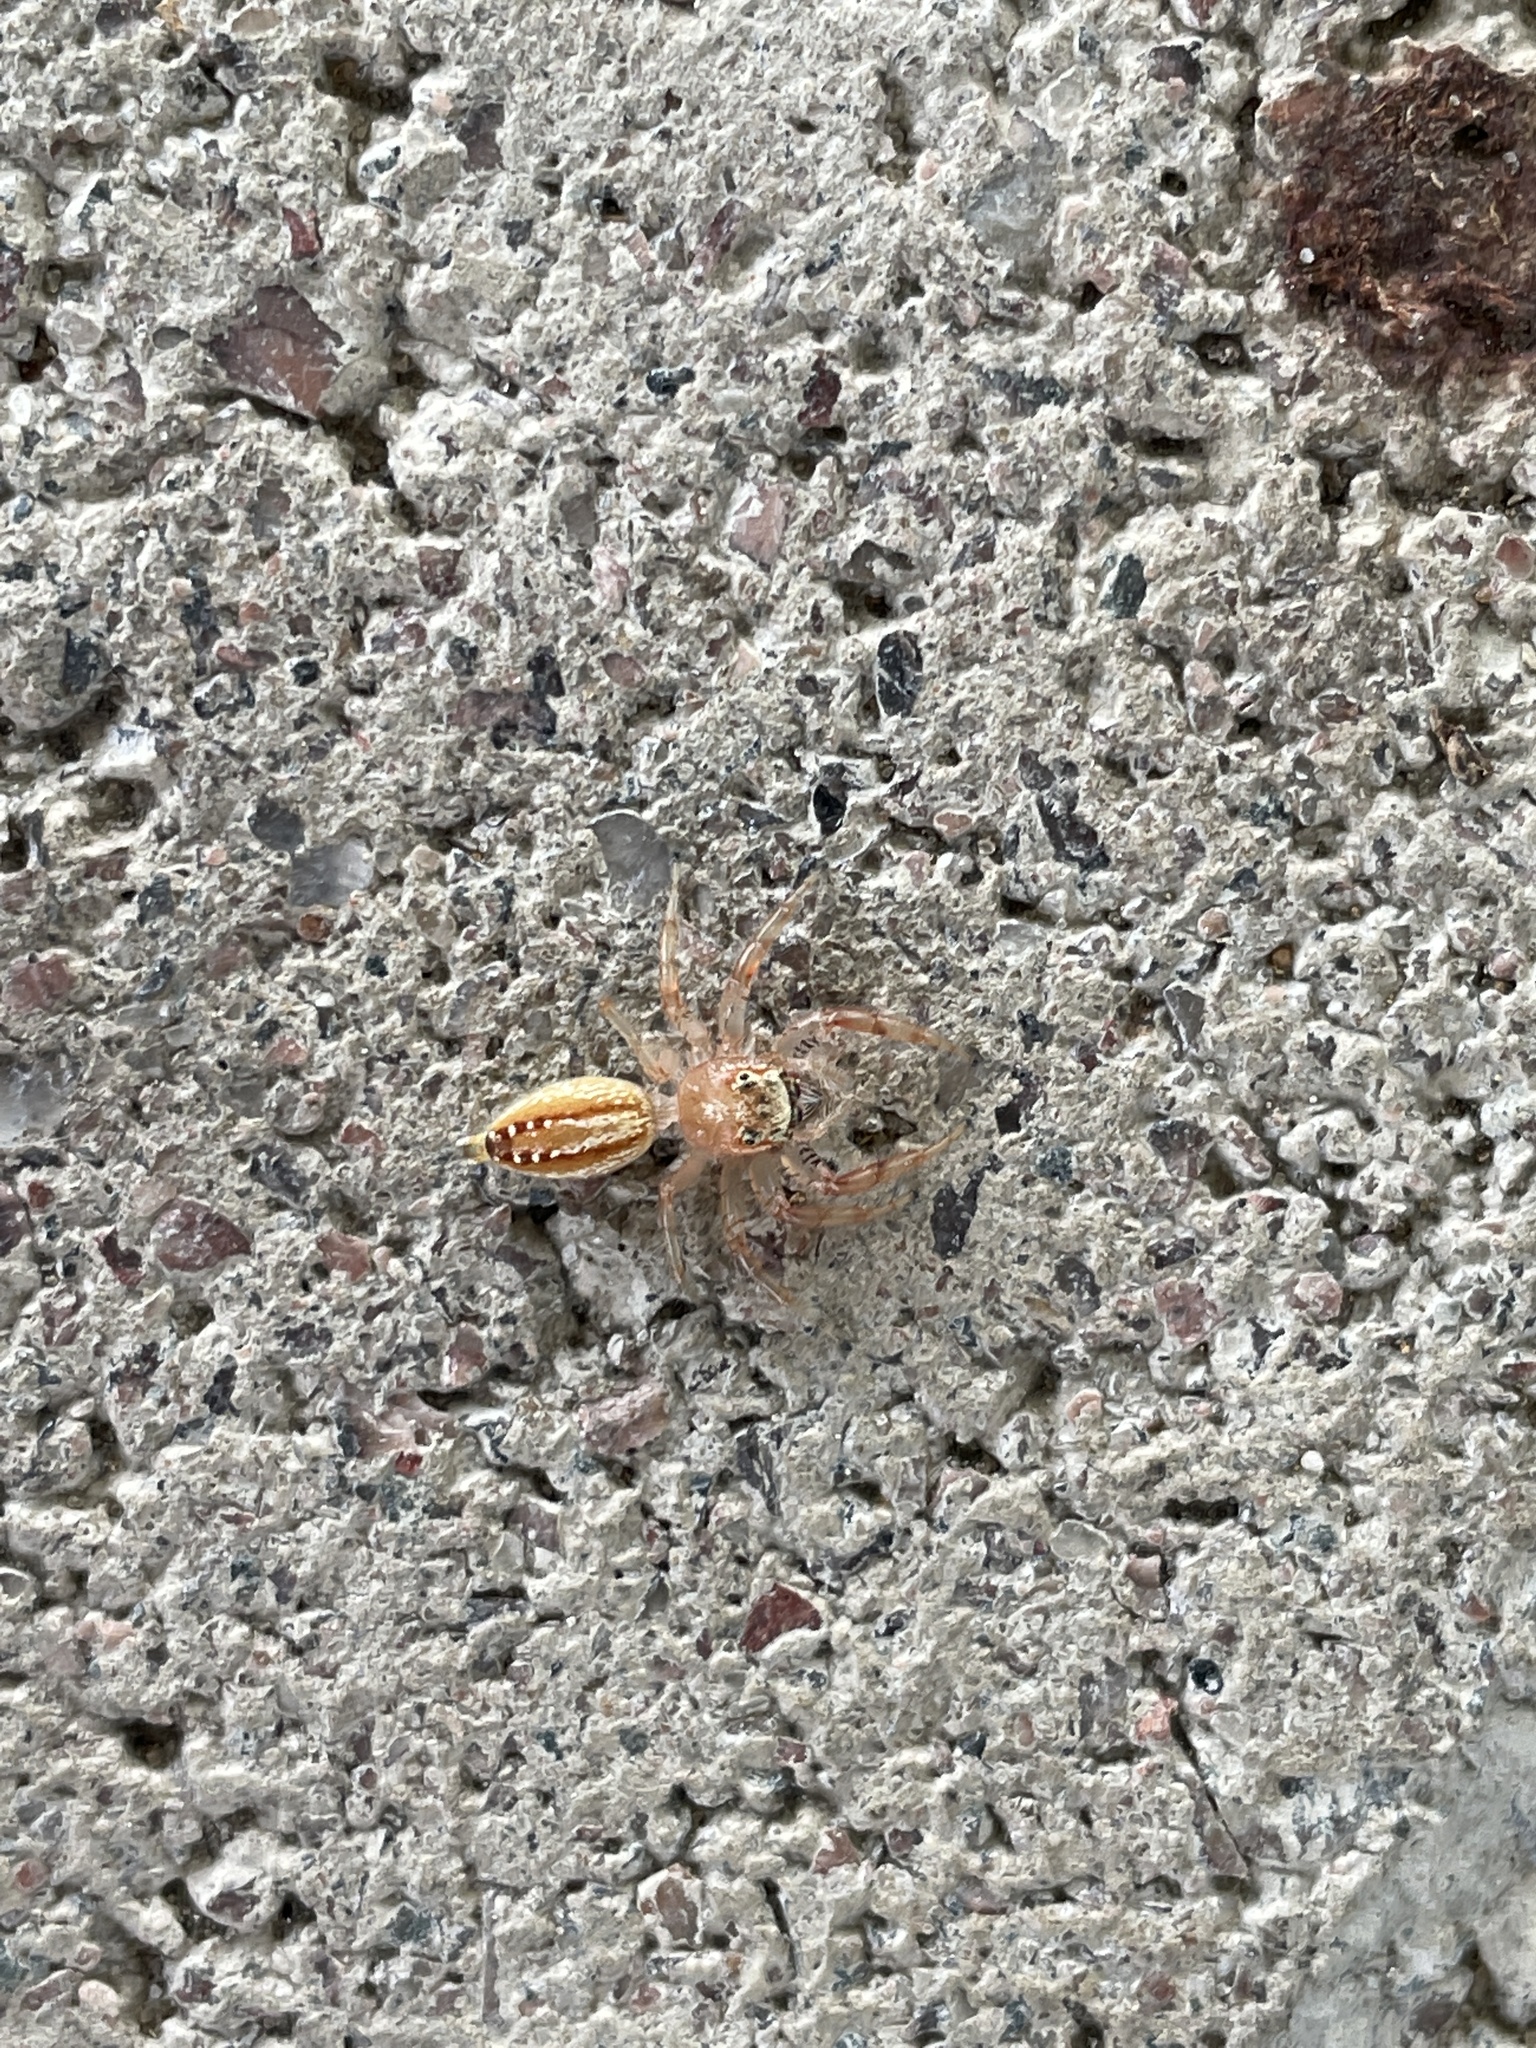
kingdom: Animalia
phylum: Arthropoda
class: Arachnida
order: Araneae
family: Salticidae
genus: Thyene
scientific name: Thyene ogdeni
